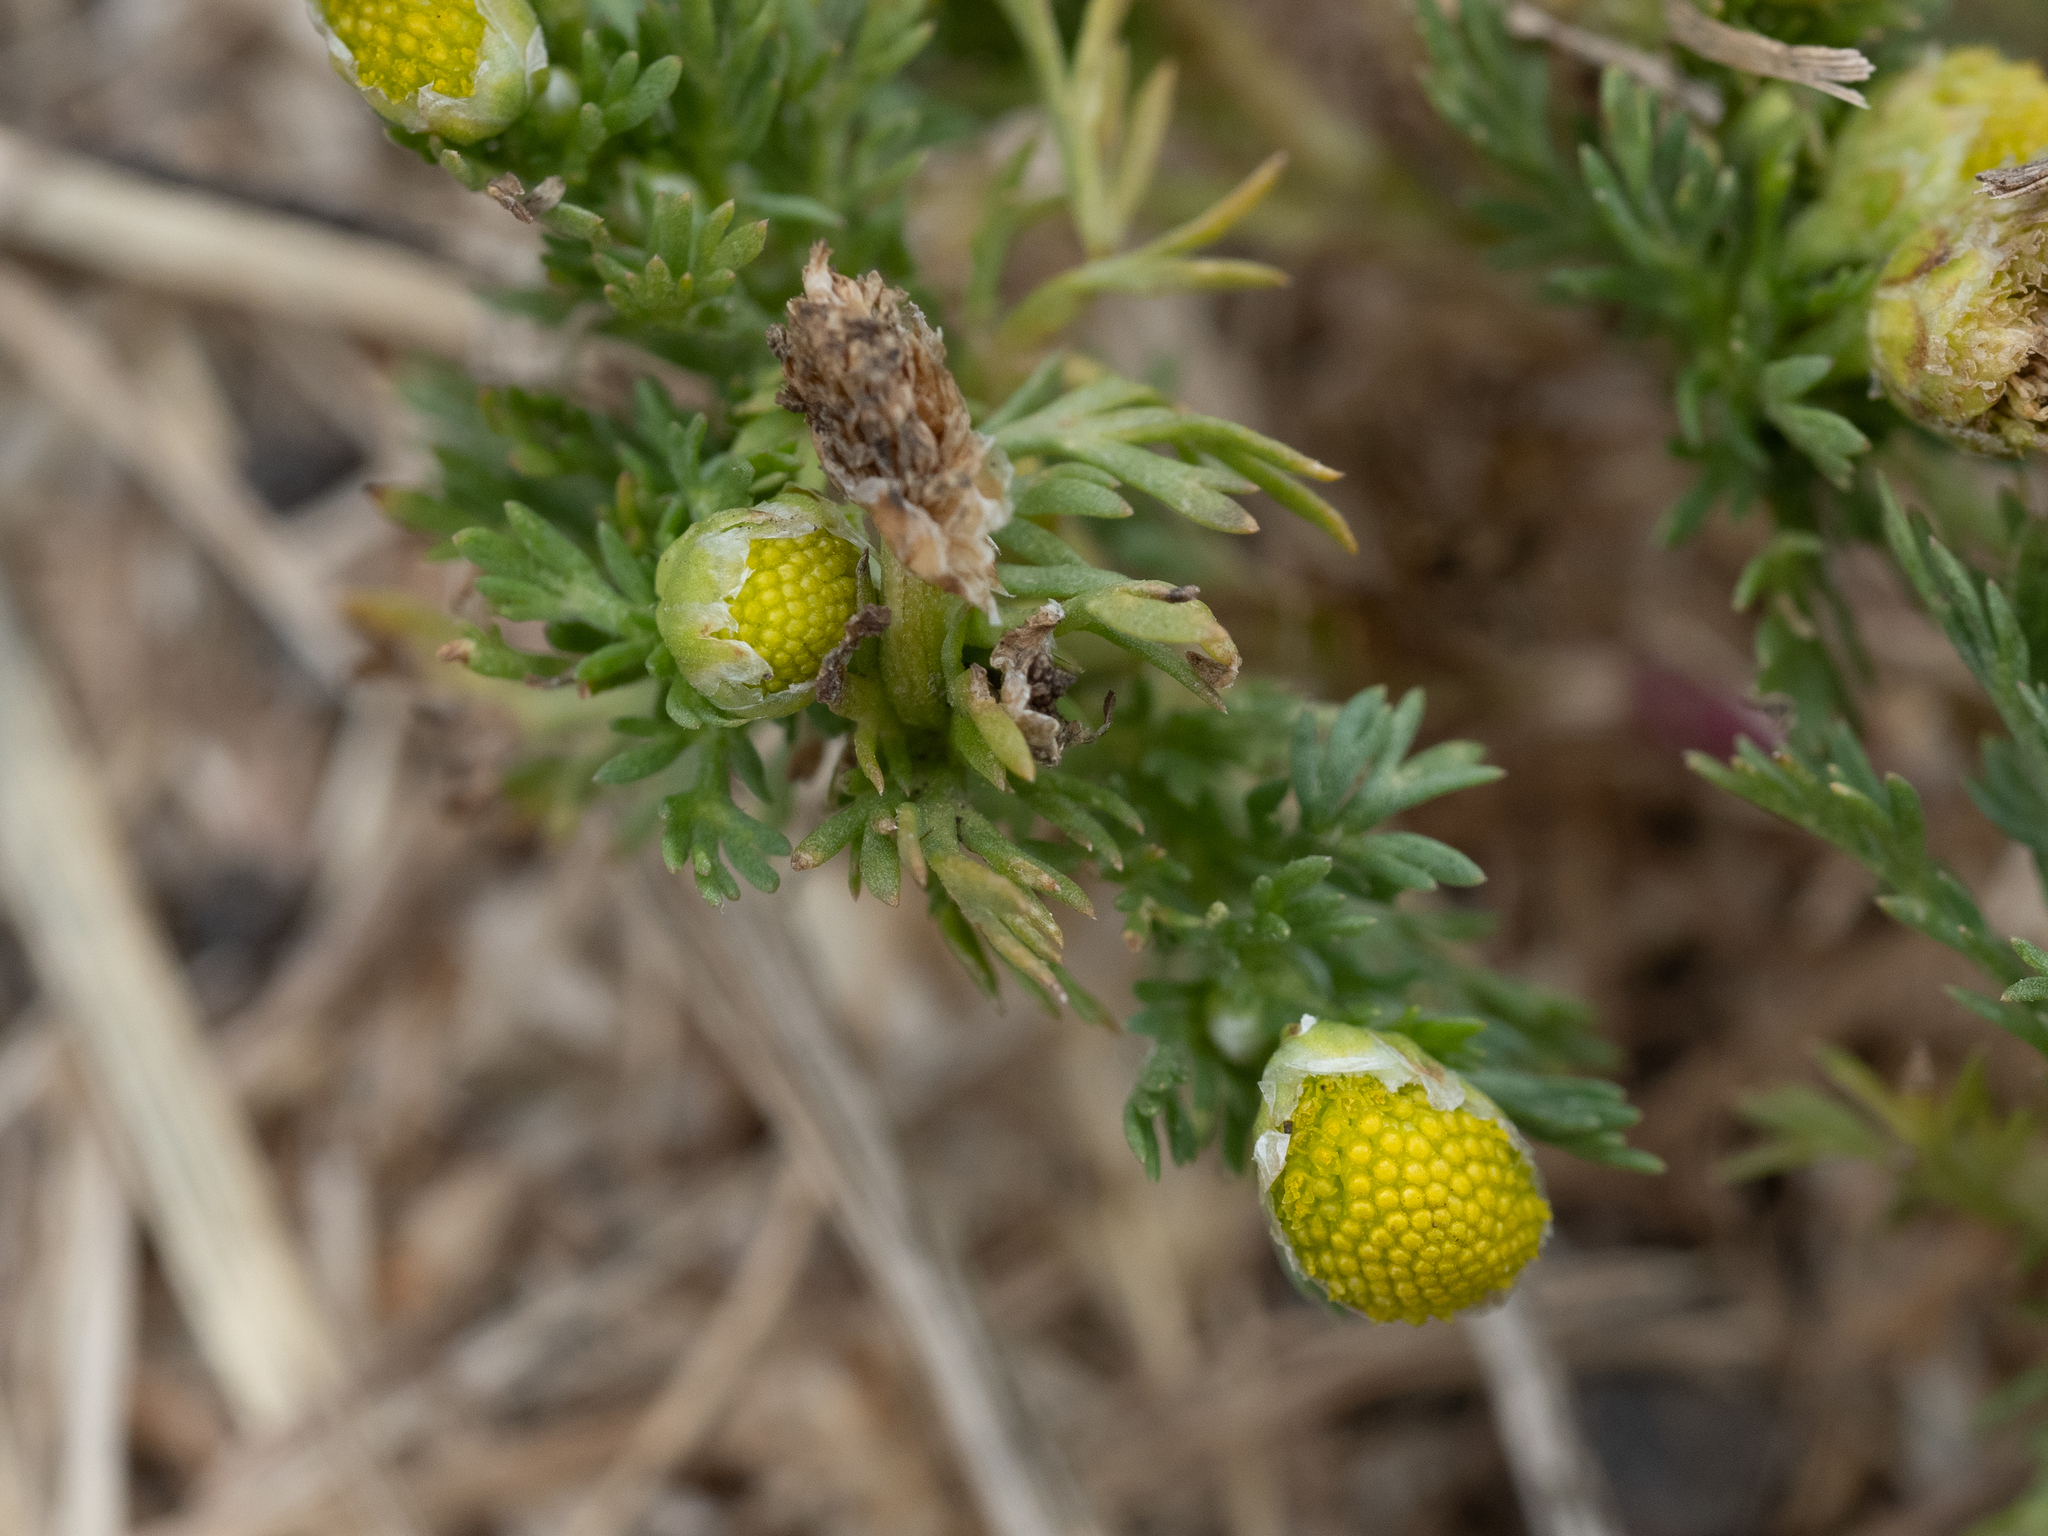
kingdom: Plantae
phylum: Tracheophyta
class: Magnoliopsida
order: Asterales
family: Asteraceae
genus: Matricaria
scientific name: Matricaria discoidea
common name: Disc mayweed
